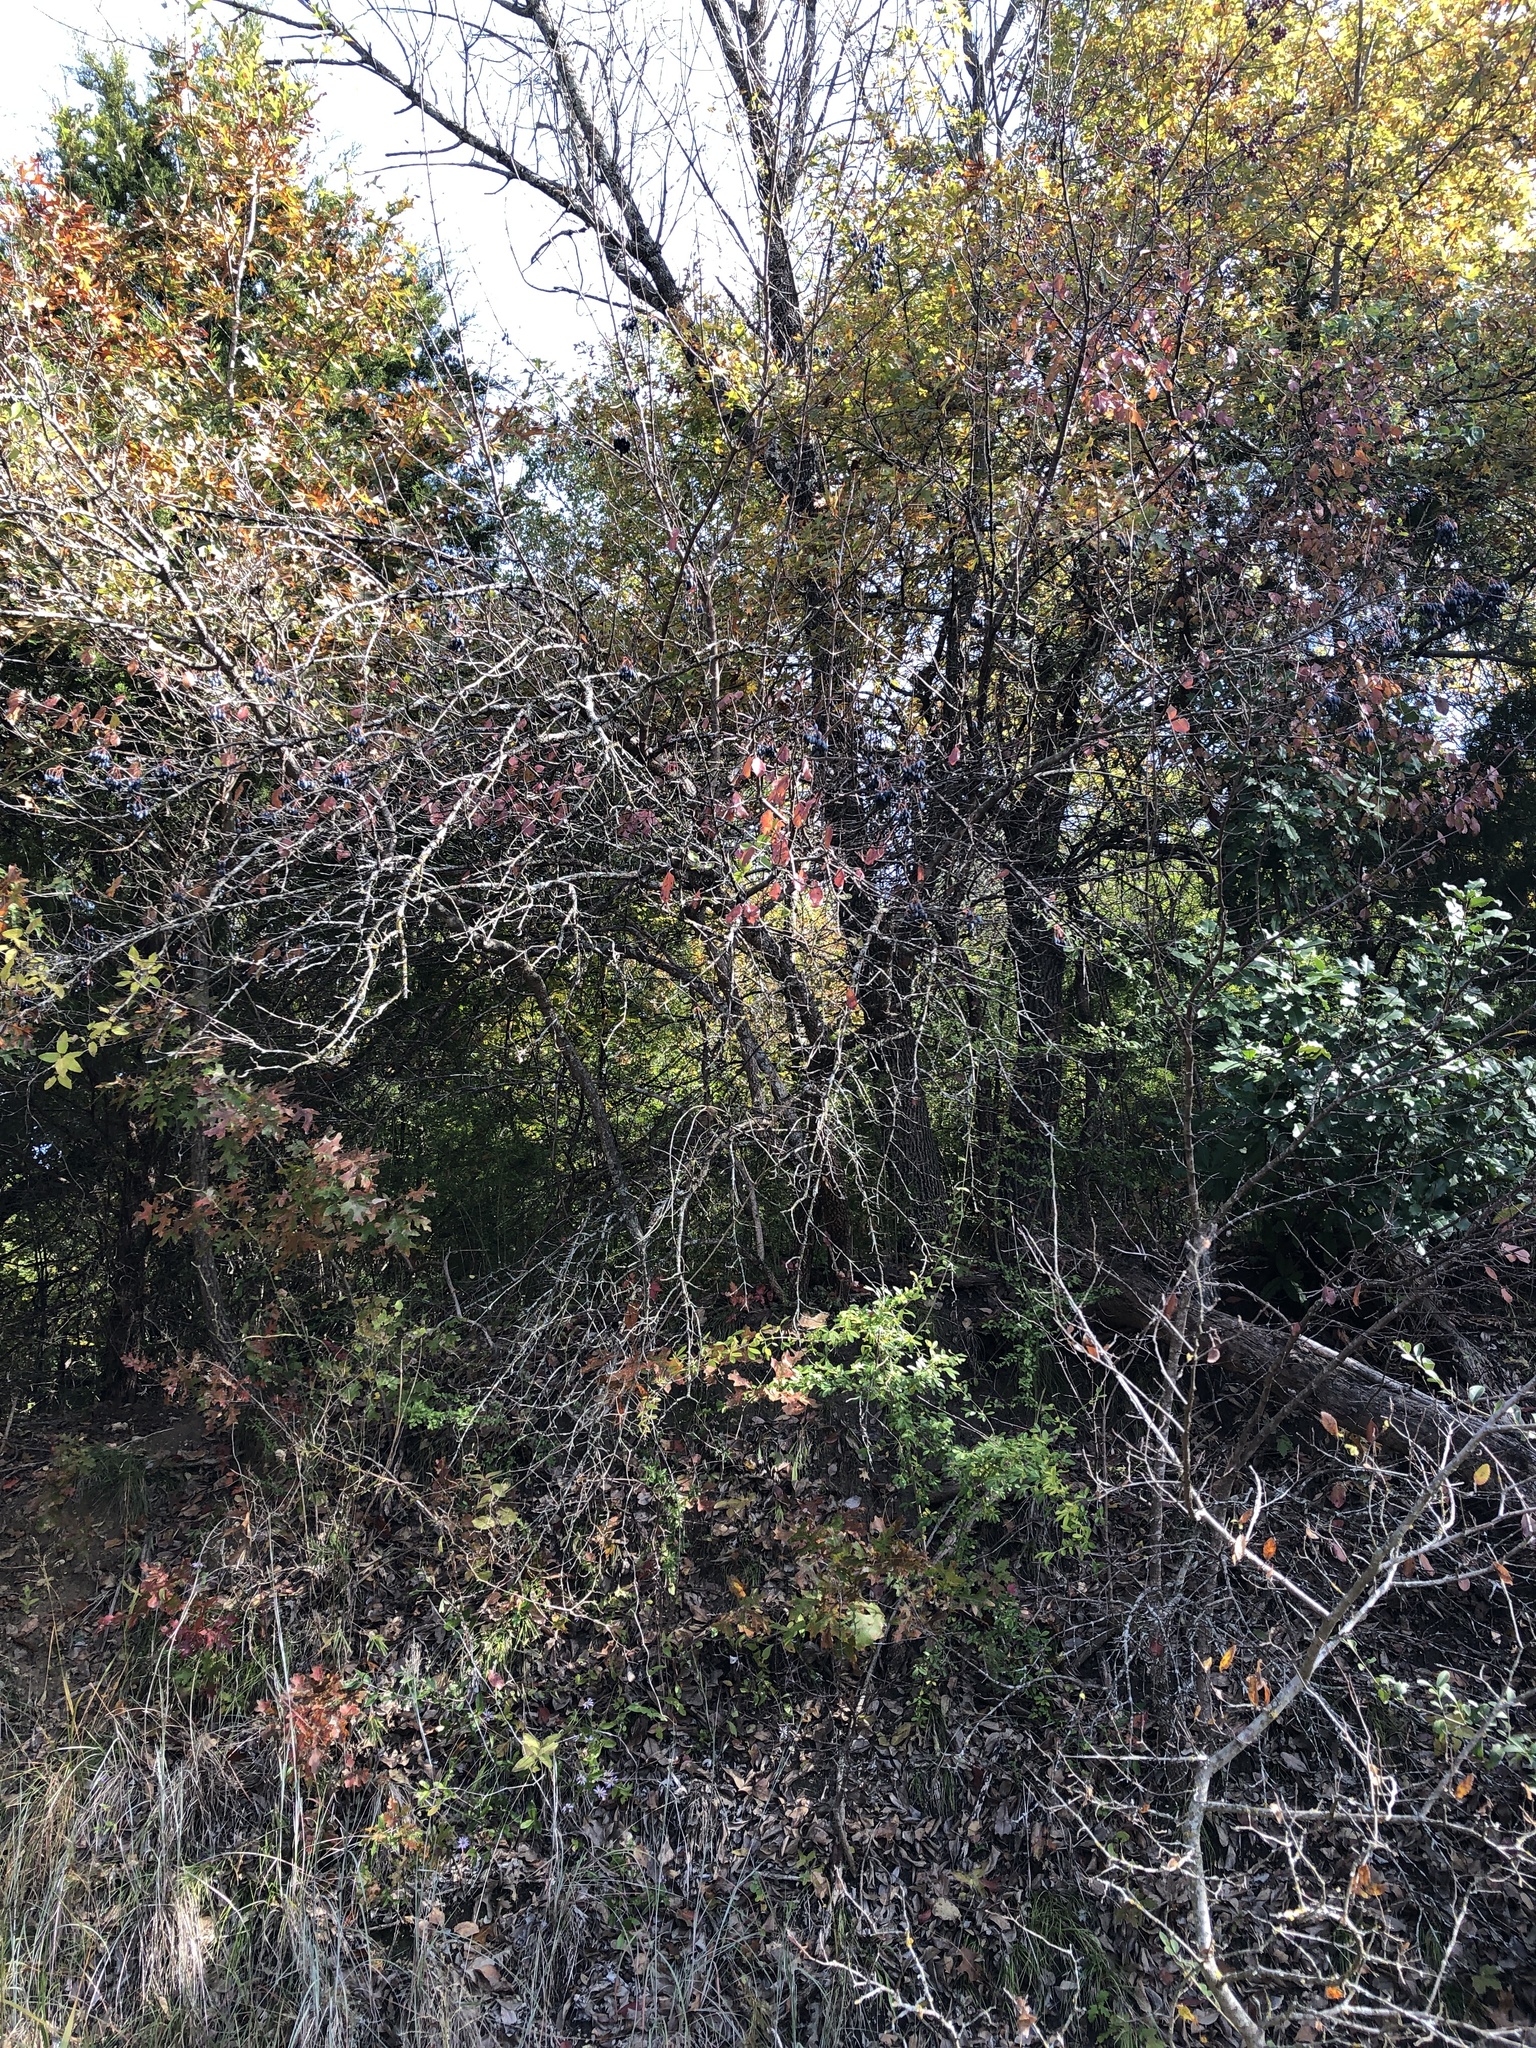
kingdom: Plantae
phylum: Tracheophyta
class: Magnoliopsida
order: Dipsacales
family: Viburnaceae
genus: Viburnum
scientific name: Viburnum rufidulum
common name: Blue haw
